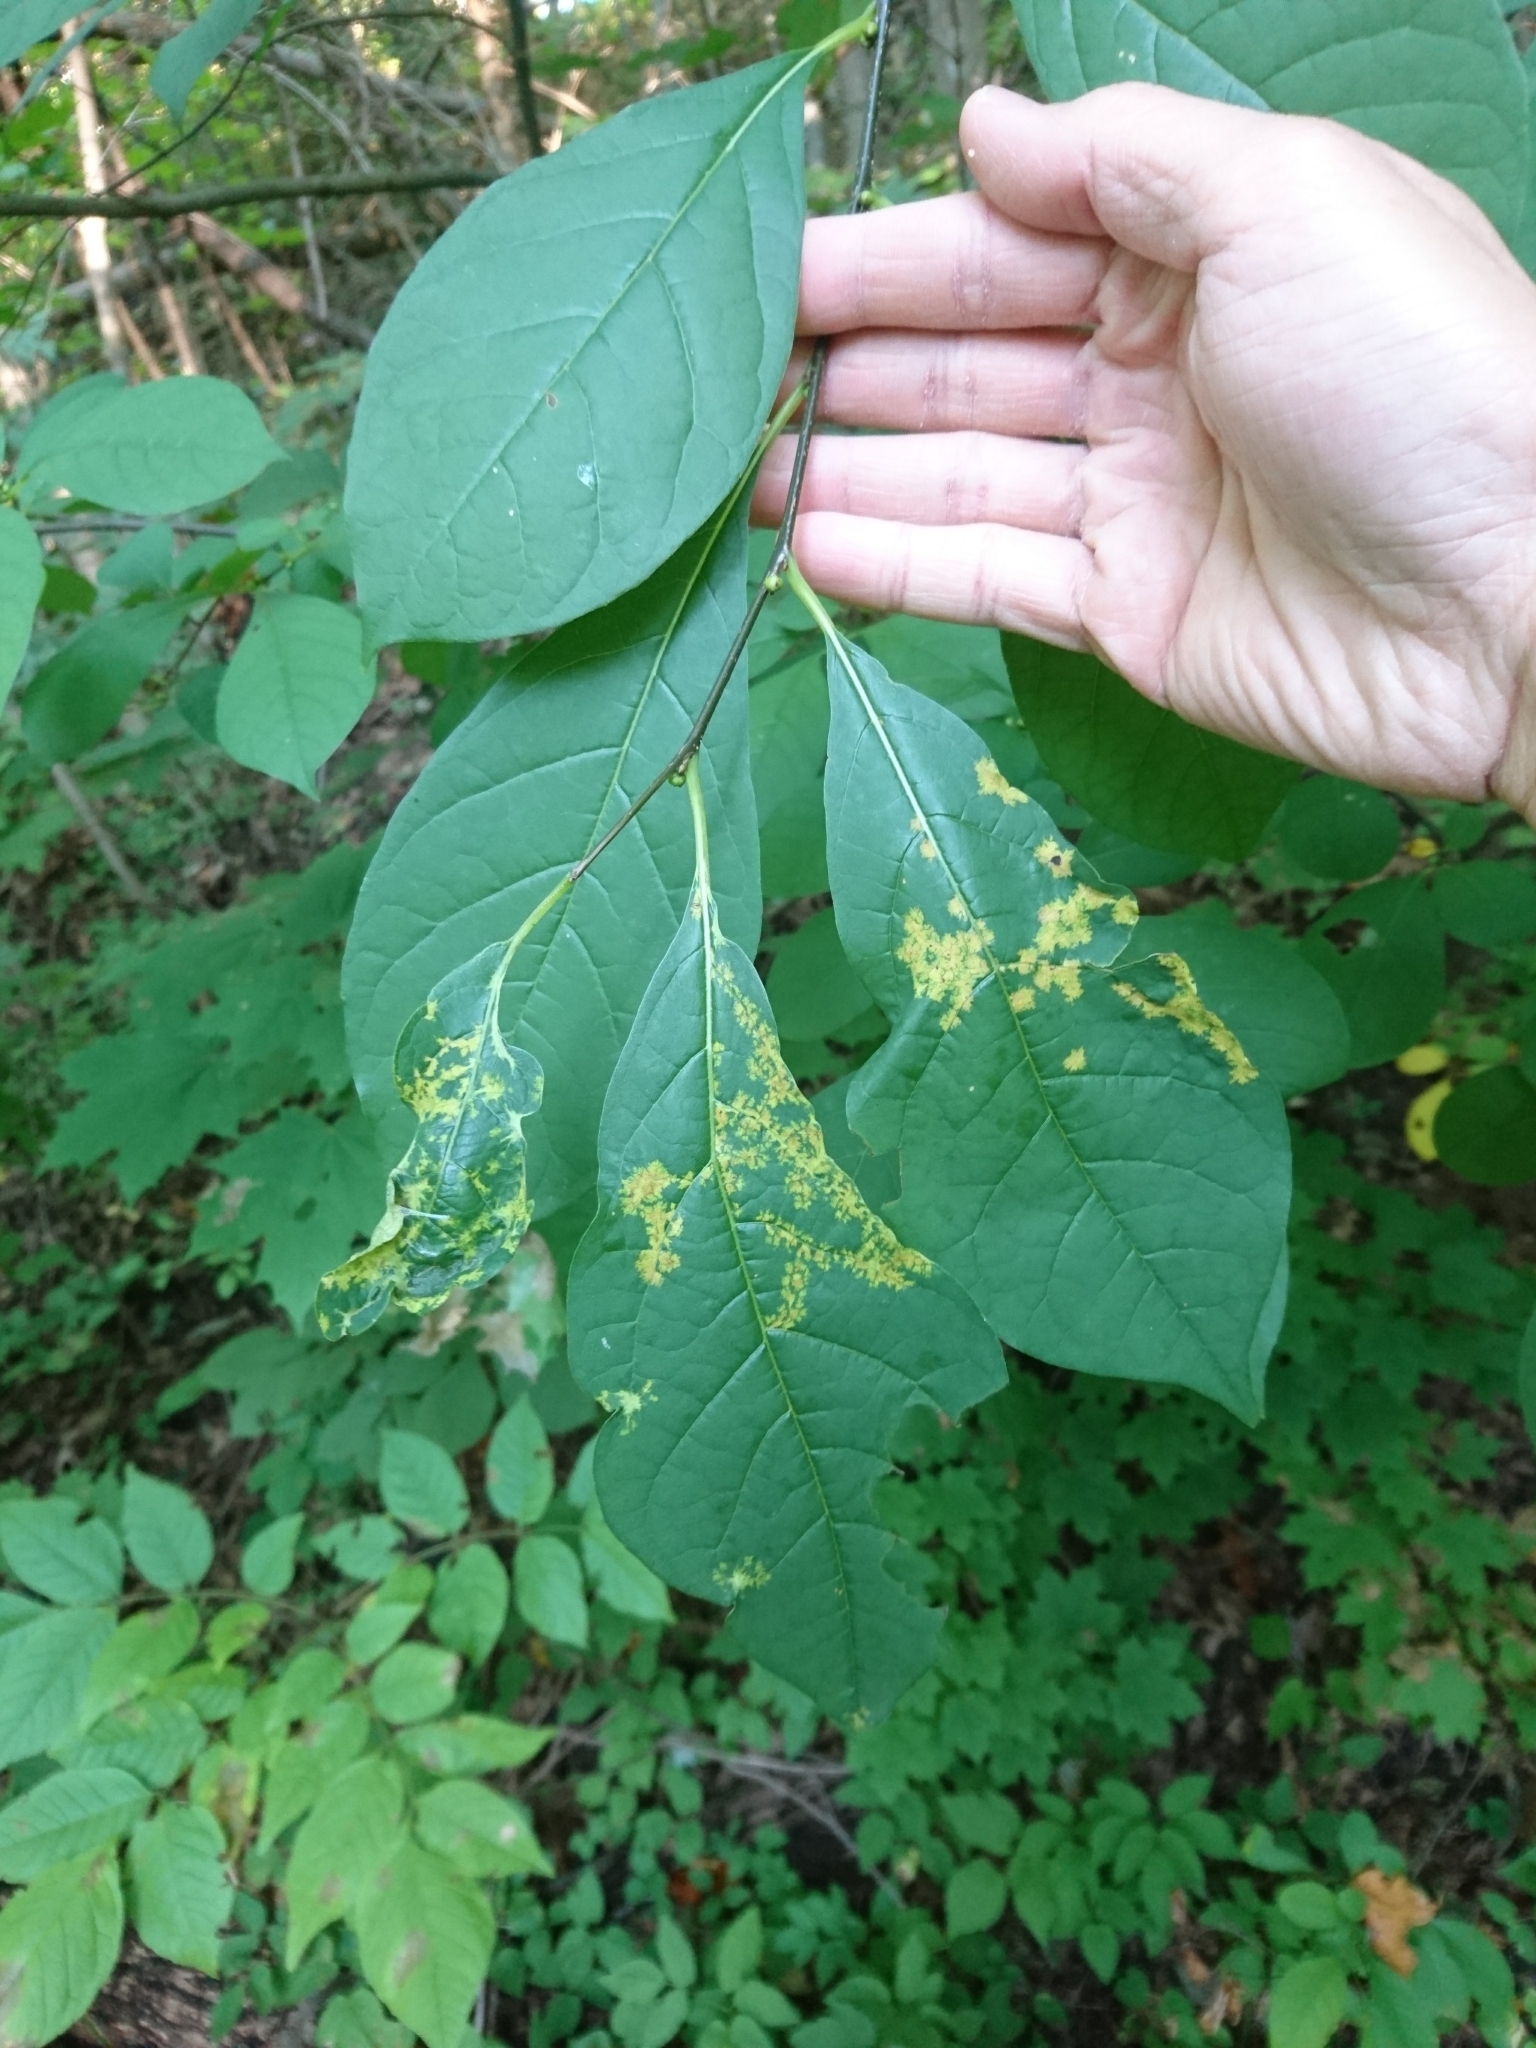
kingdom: Plantae
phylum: Tracheophyta
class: Magnoliopsida
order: Laurales
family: Lauraceae
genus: Lindera
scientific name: Lindera benzoin
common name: Spicebush
